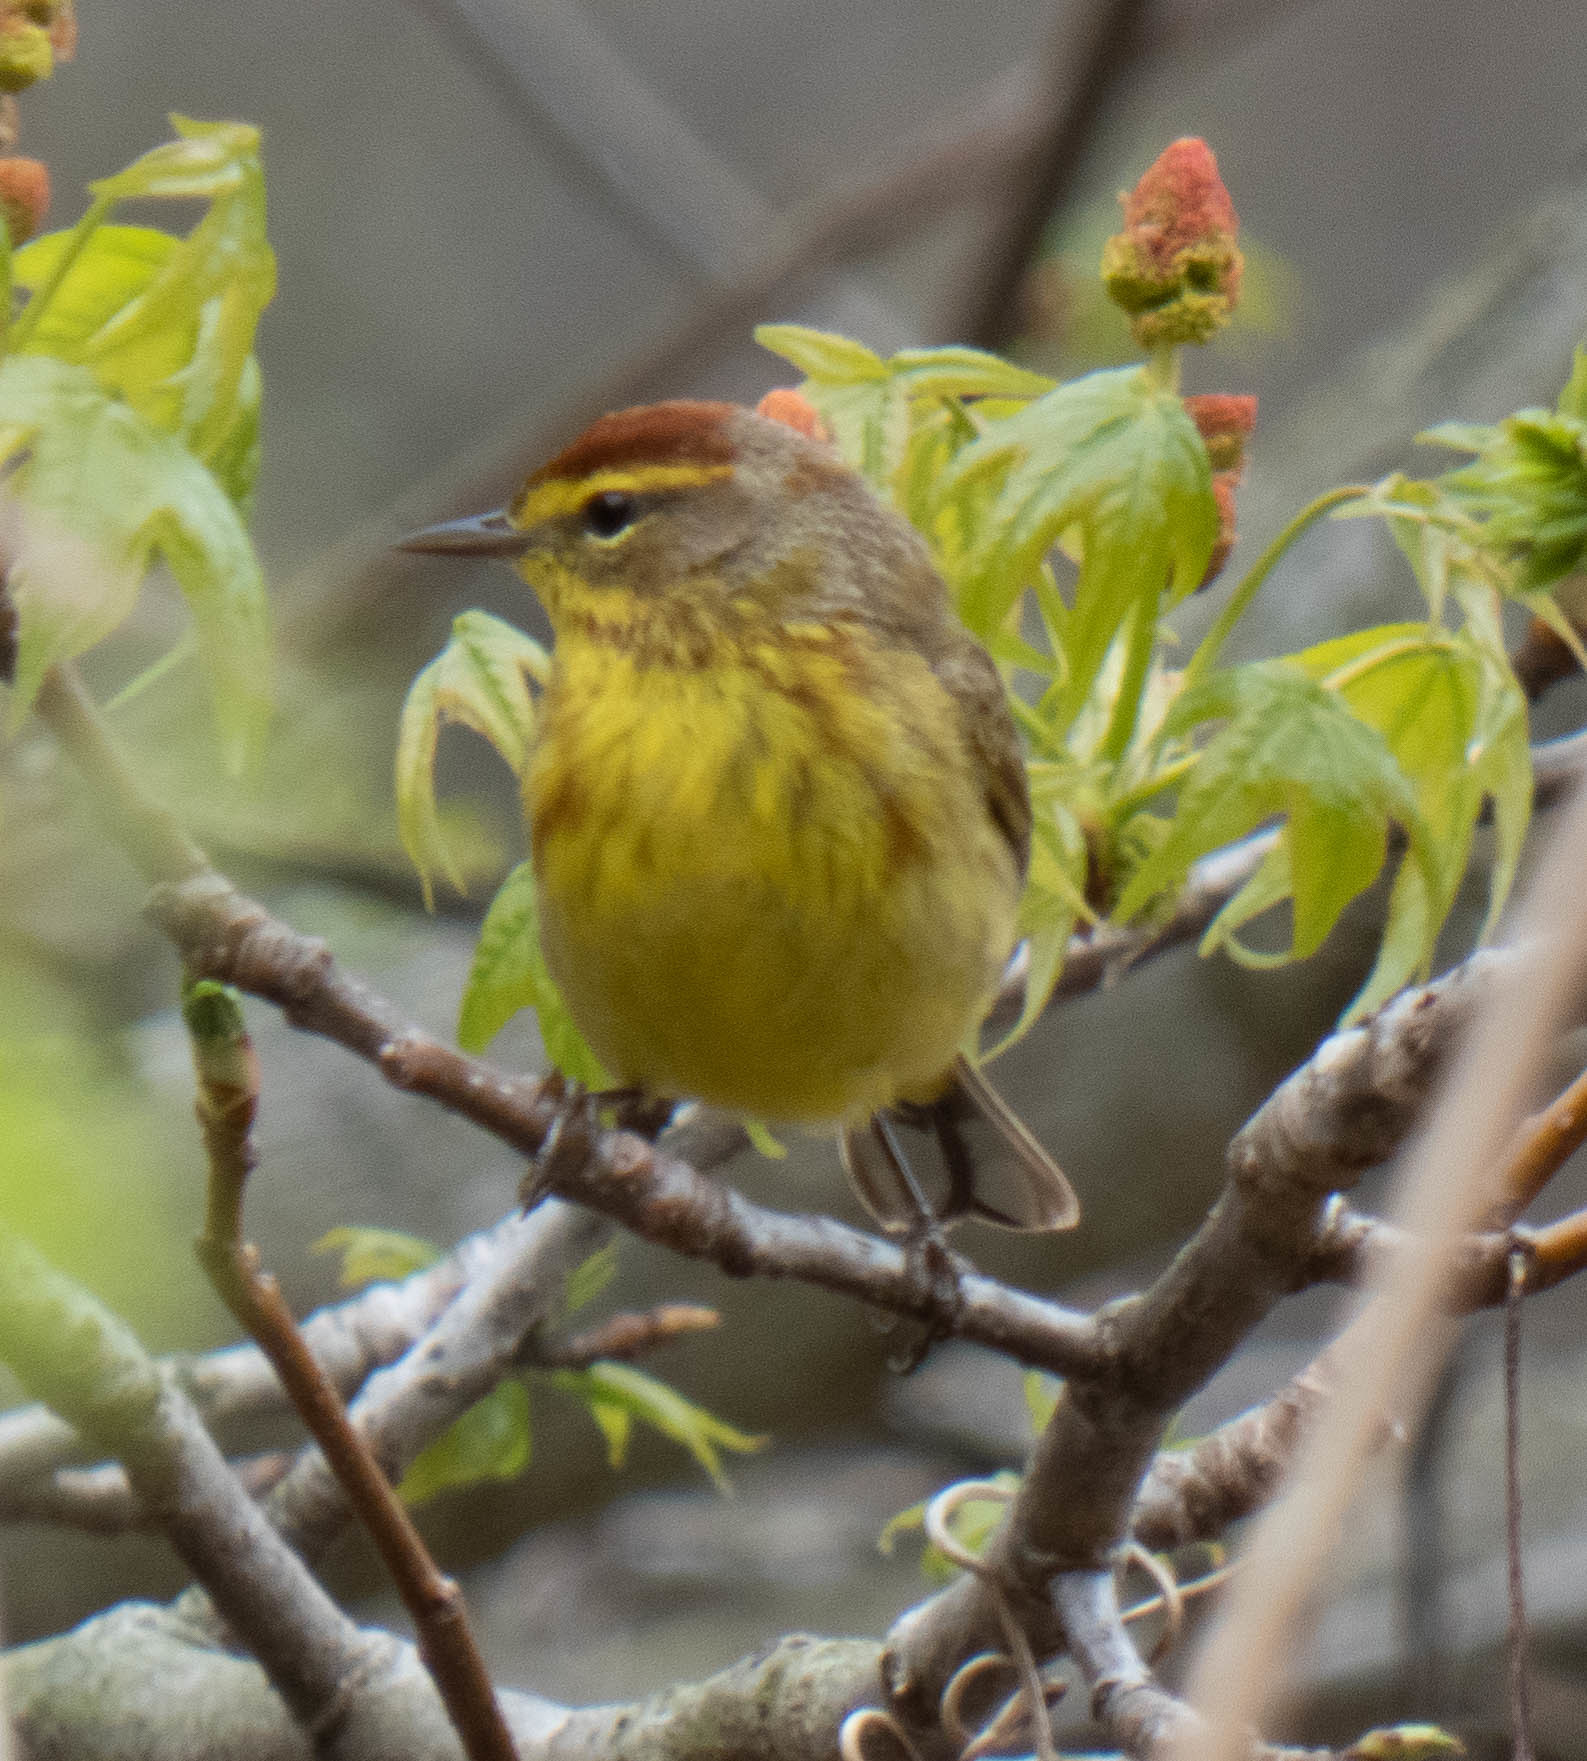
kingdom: Animalia
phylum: Chordata
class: Aves
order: Passeriformes
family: Parulidae
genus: Setophaga
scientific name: Setophaga palmarum
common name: Palm warbler
